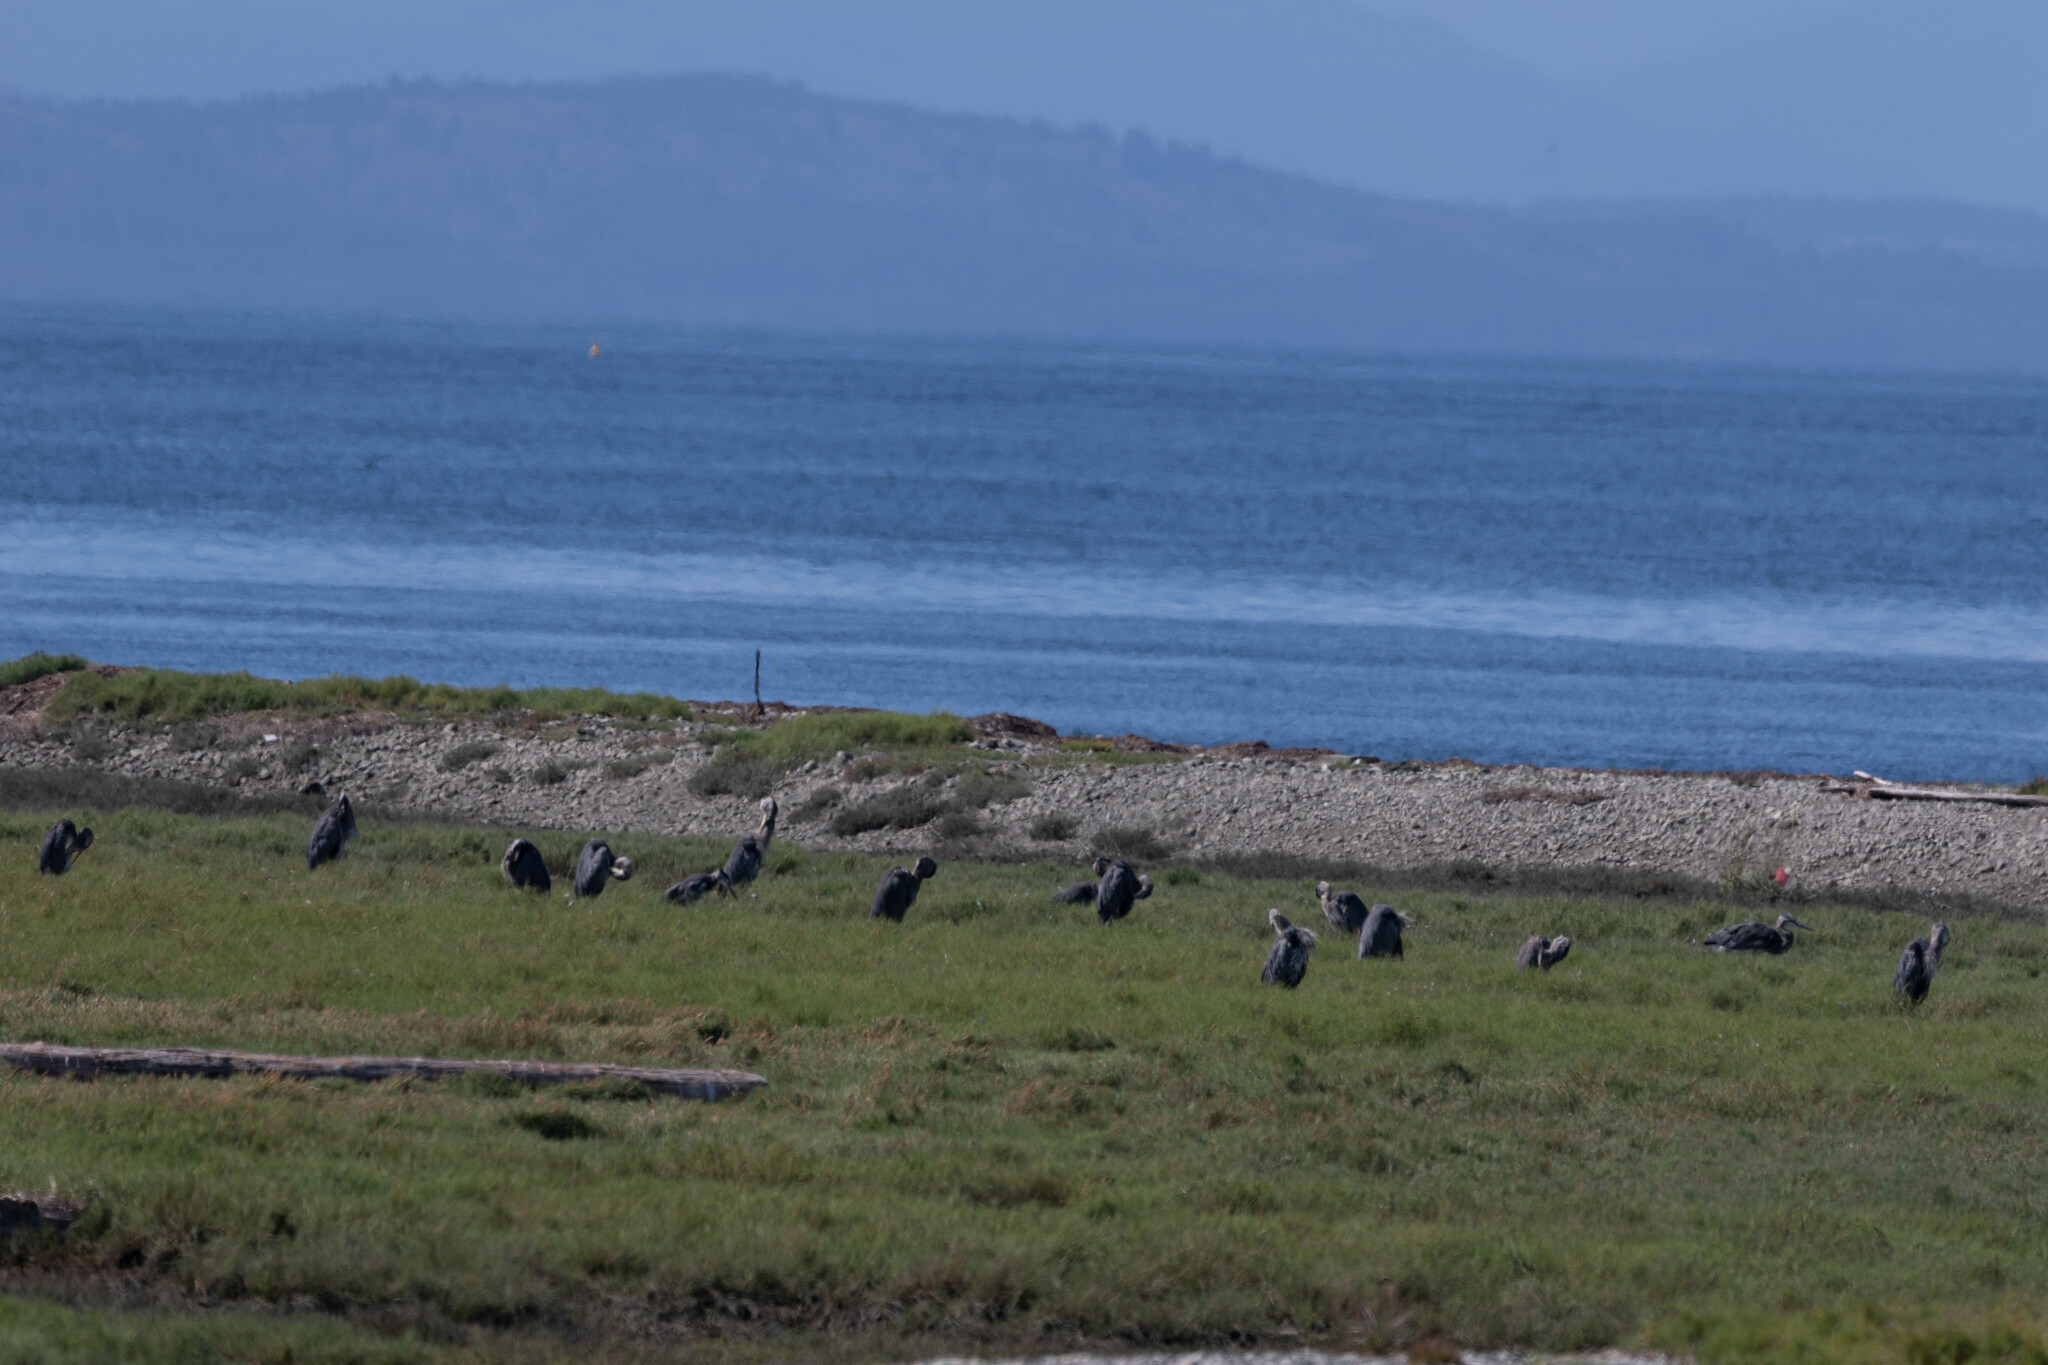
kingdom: Animalia
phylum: Chordata
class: Aves
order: Pelecaniformes
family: Ardeidae
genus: Ardea
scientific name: Ardea herodias
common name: Great blue heron
